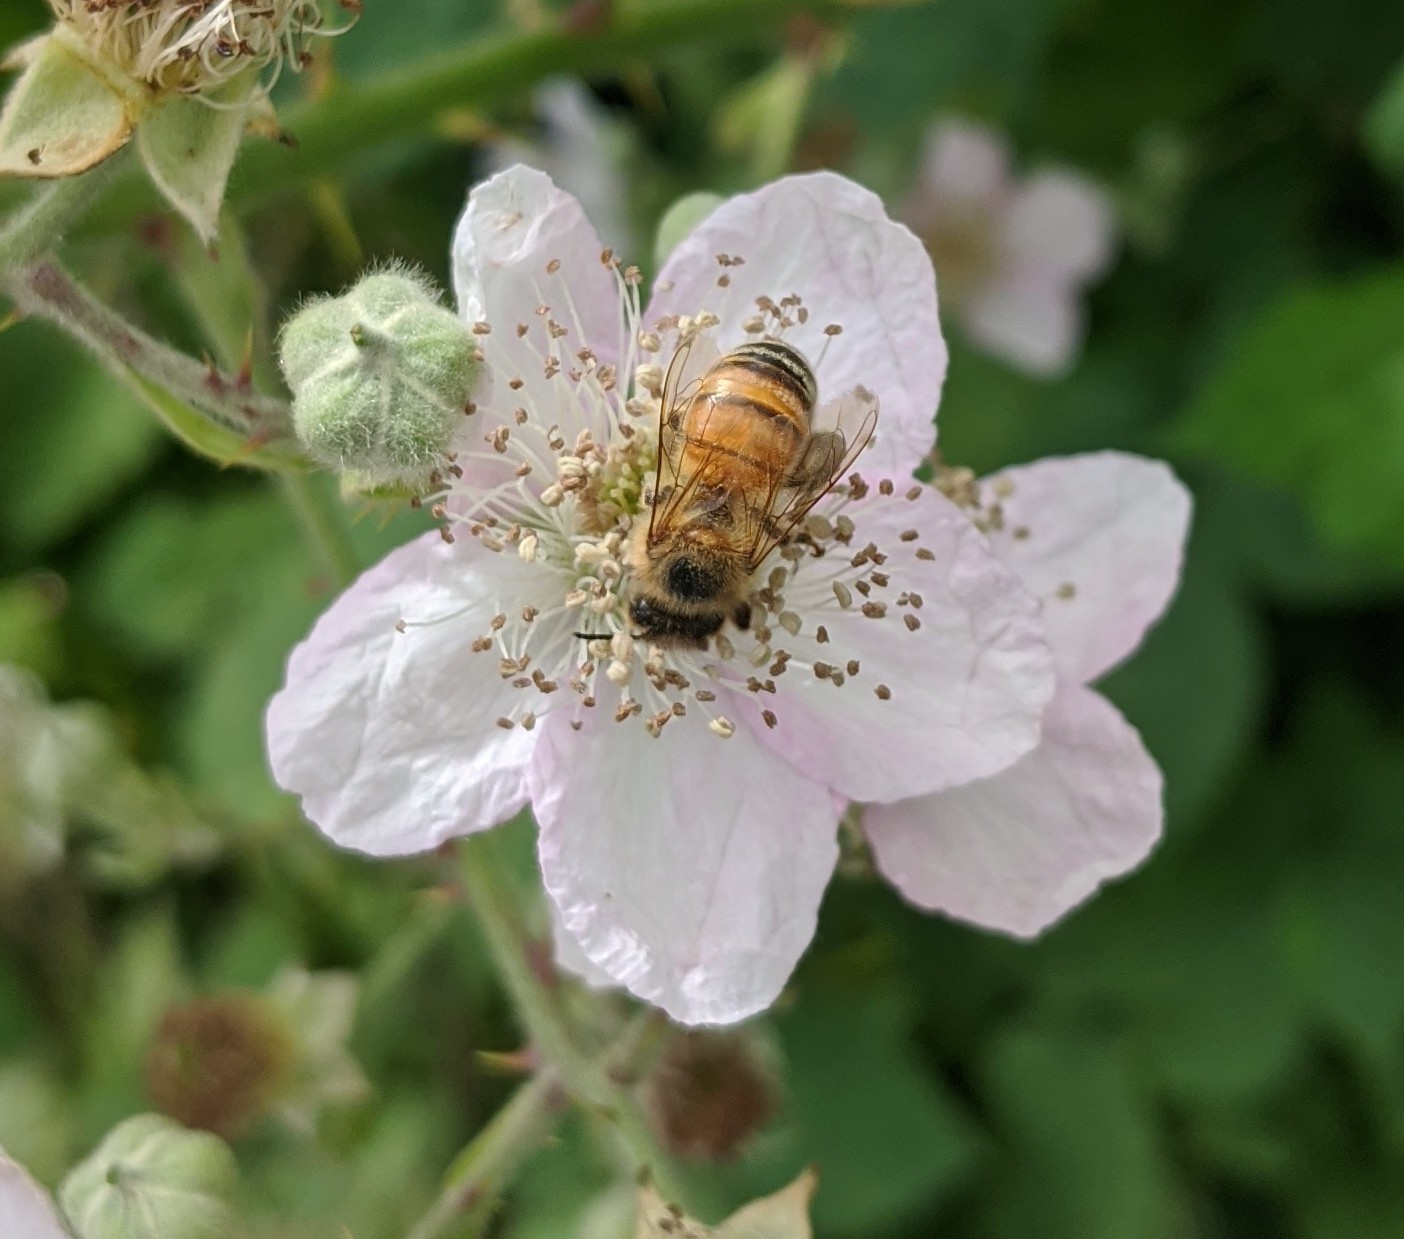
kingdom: Animalia
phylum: Arthropoda
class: Insecta
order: Hymenoptera
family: Apidae
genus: Apis
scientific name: Apis mellifera
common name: Honey bee
